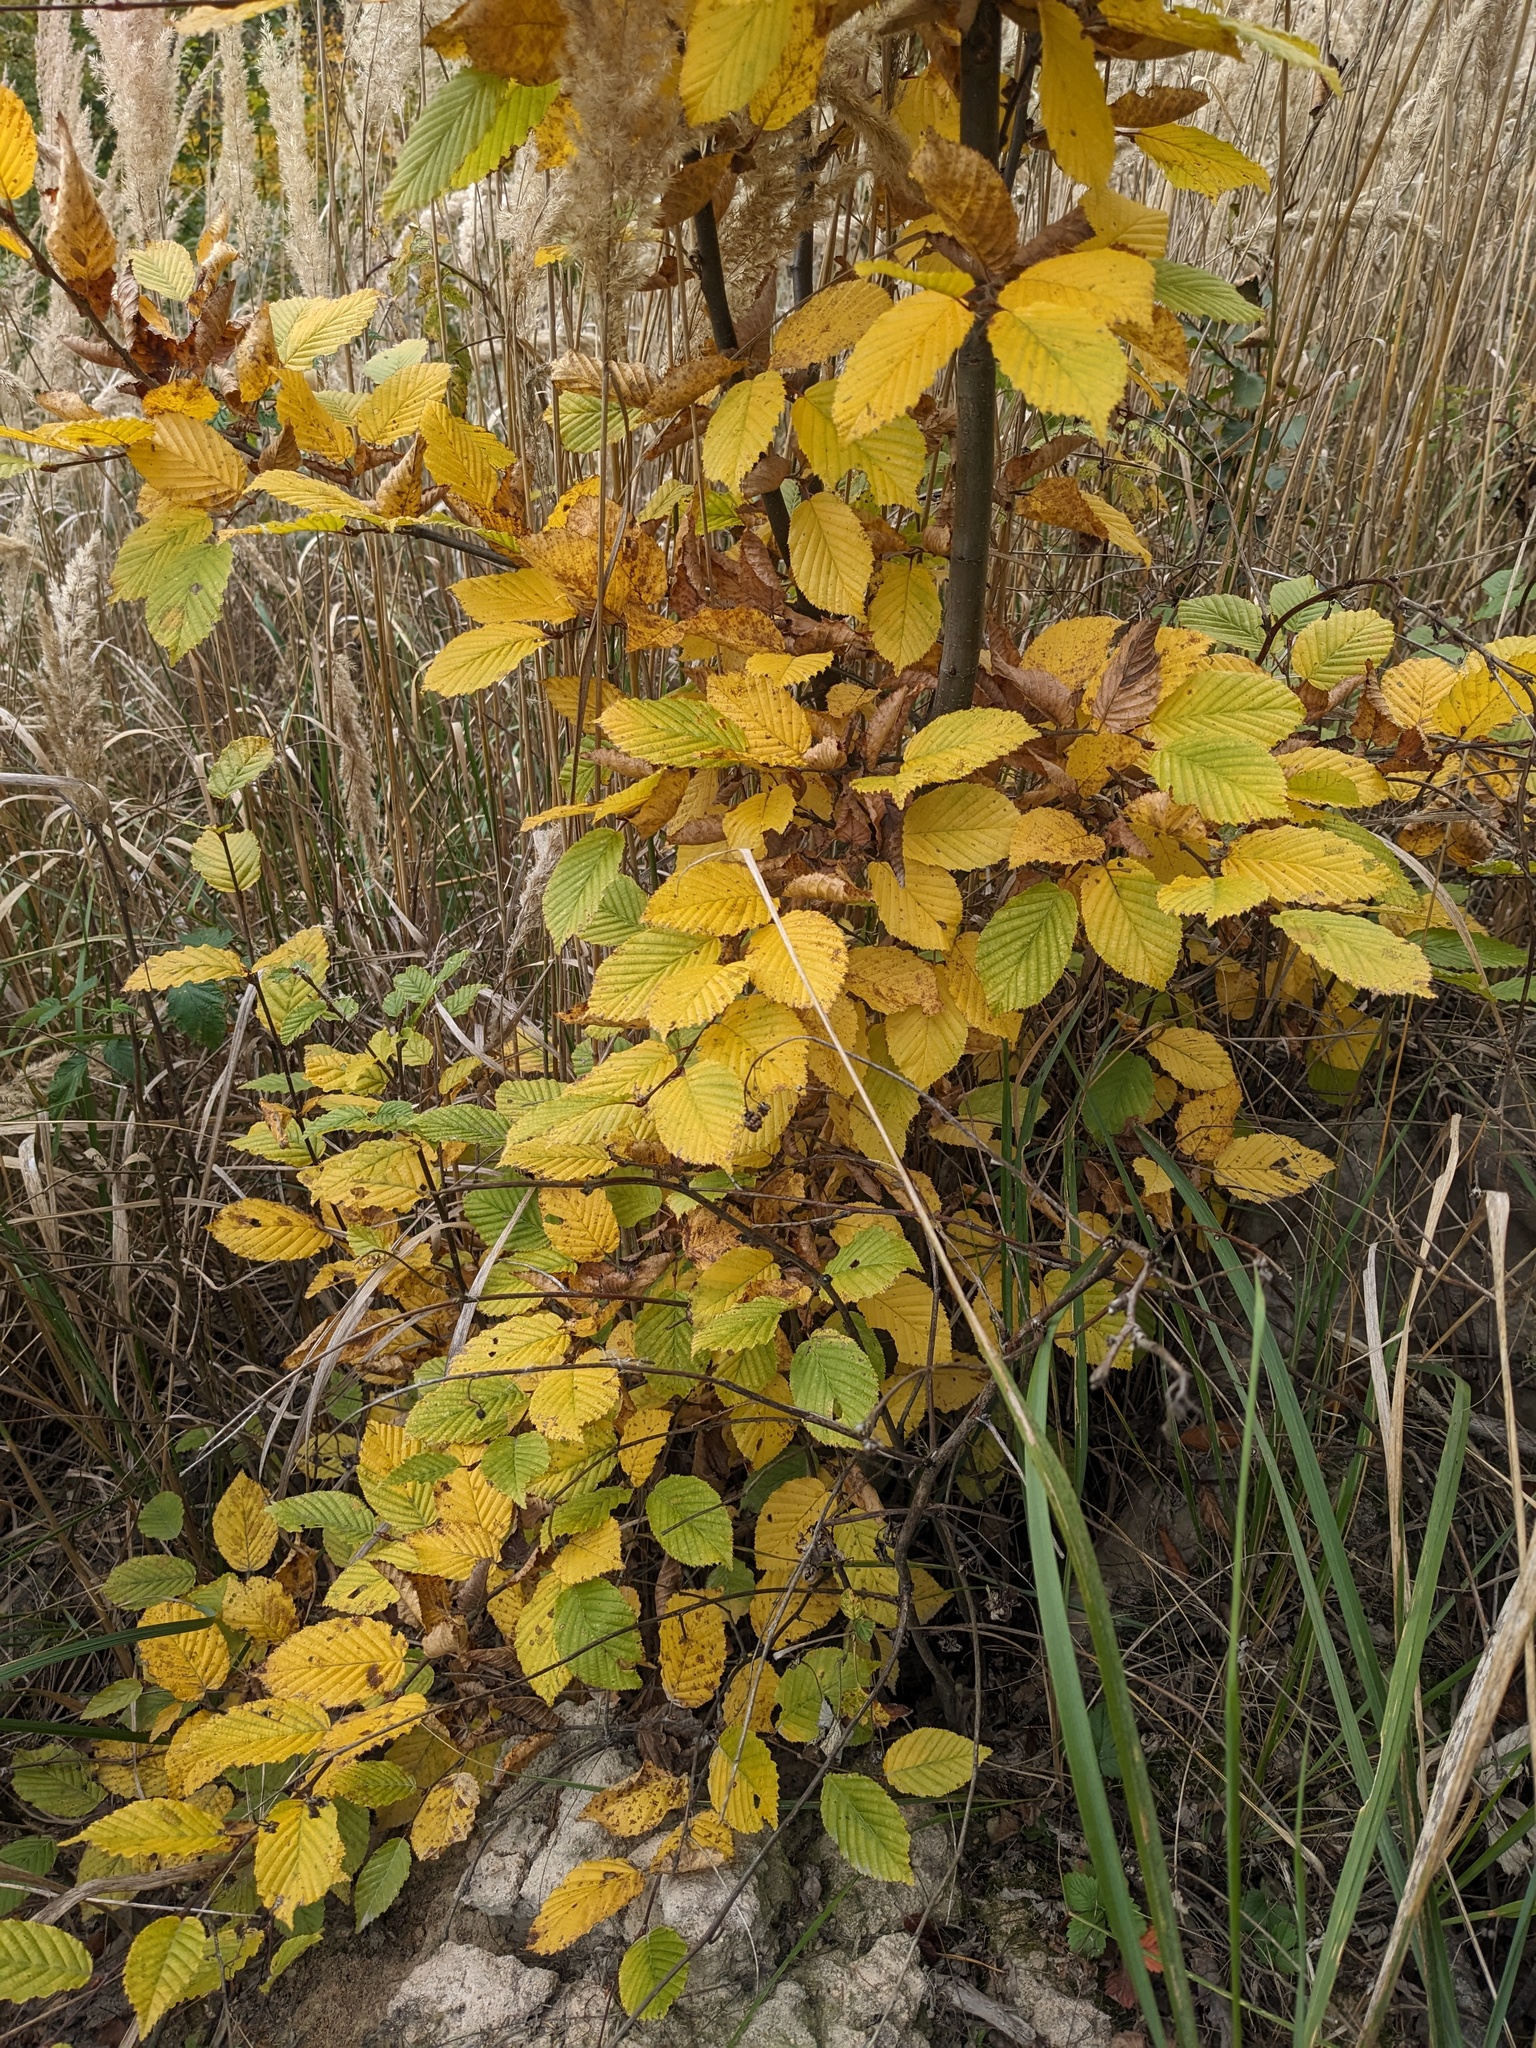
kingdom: Plantae
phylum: Tracheophyta
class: Magnoliopsida
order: Fagales
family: Betulaceae
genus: Carpinus
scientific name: Carpinus betulus
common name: Hornbeam
